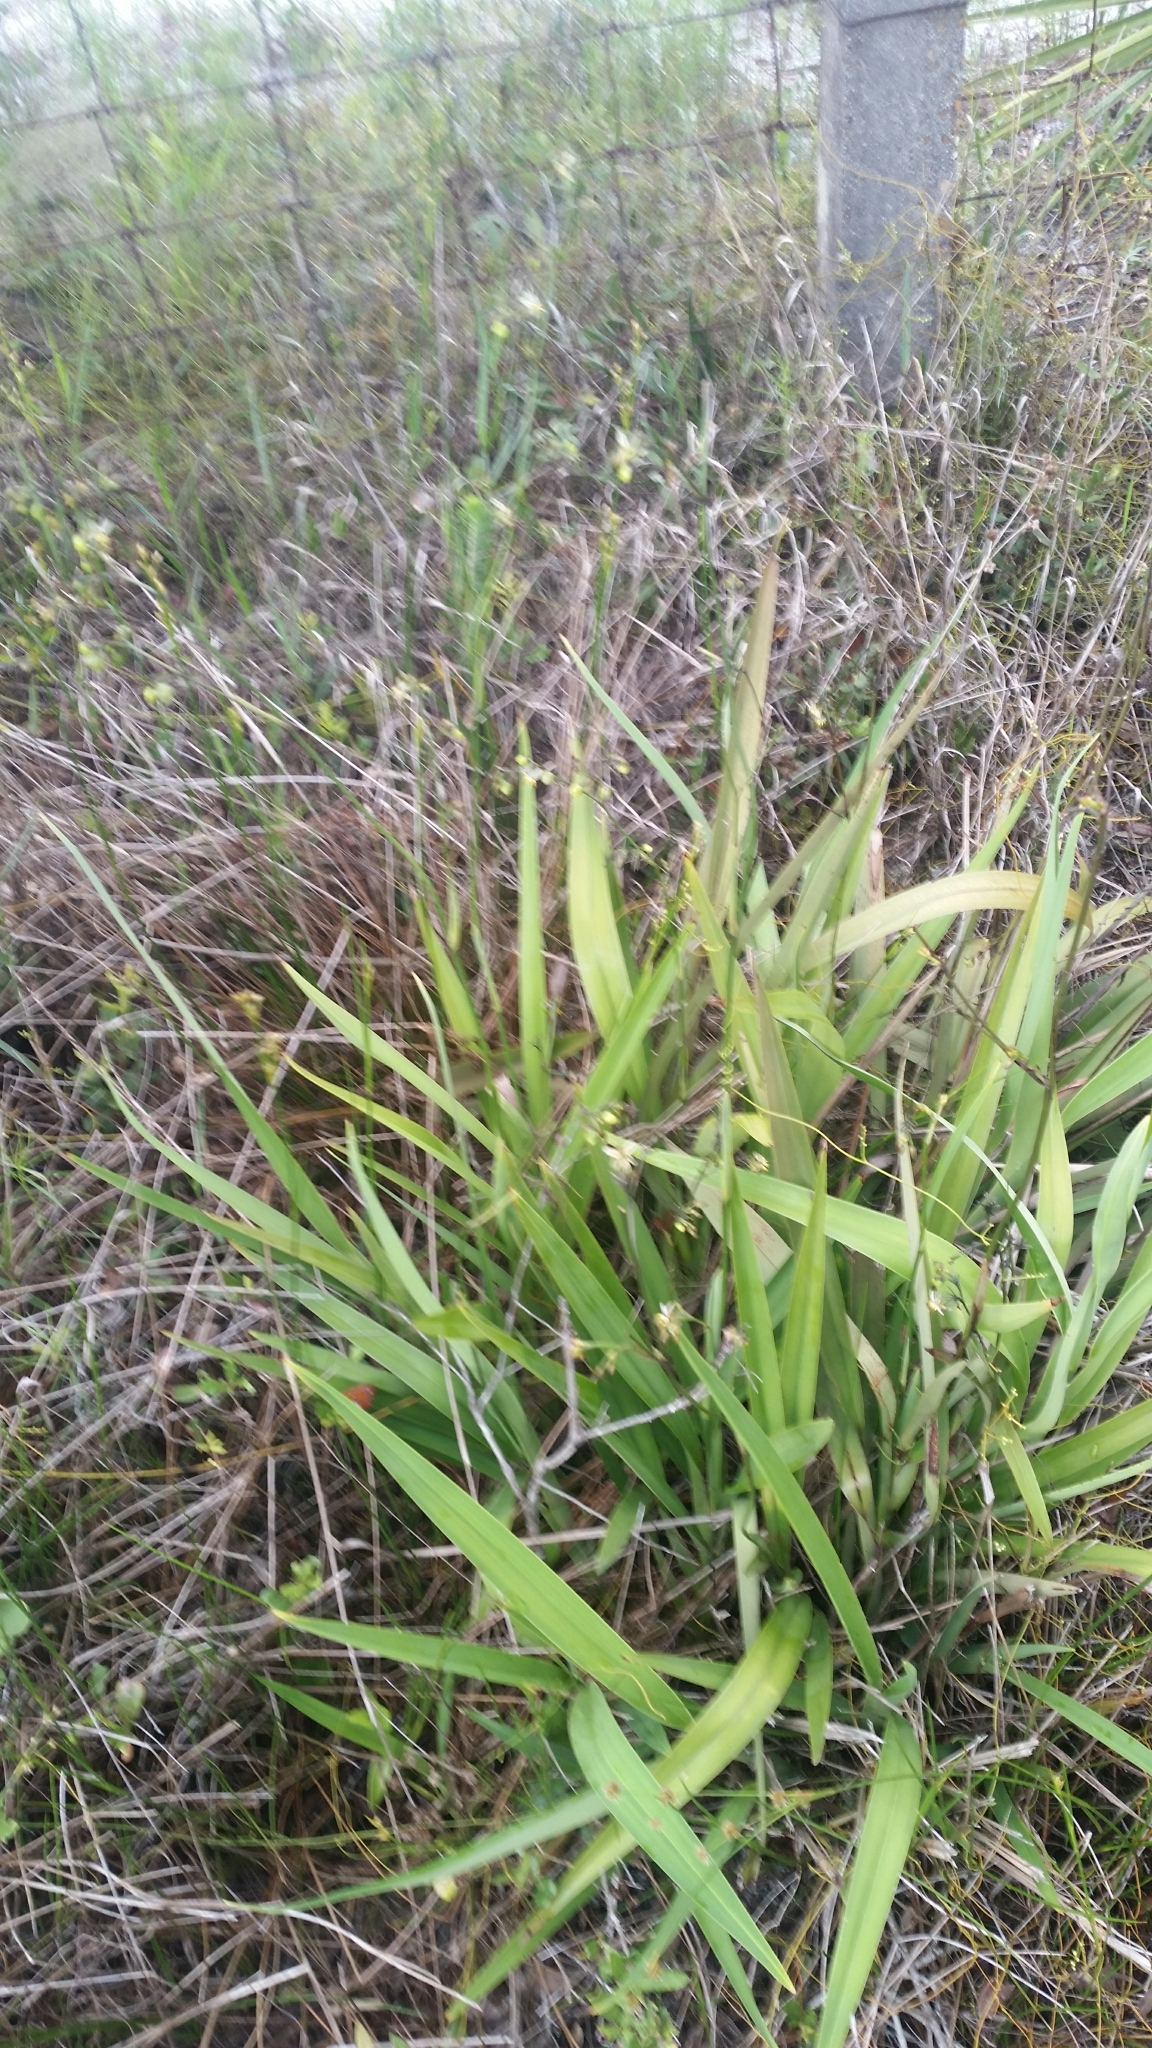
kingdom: Plantae
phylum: Tracheophyta
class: Liliopsida
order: Asparagales
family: Asphodelaceae
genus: Dianella
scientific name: Dianella ensifolia
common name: New zealand lilyplant
